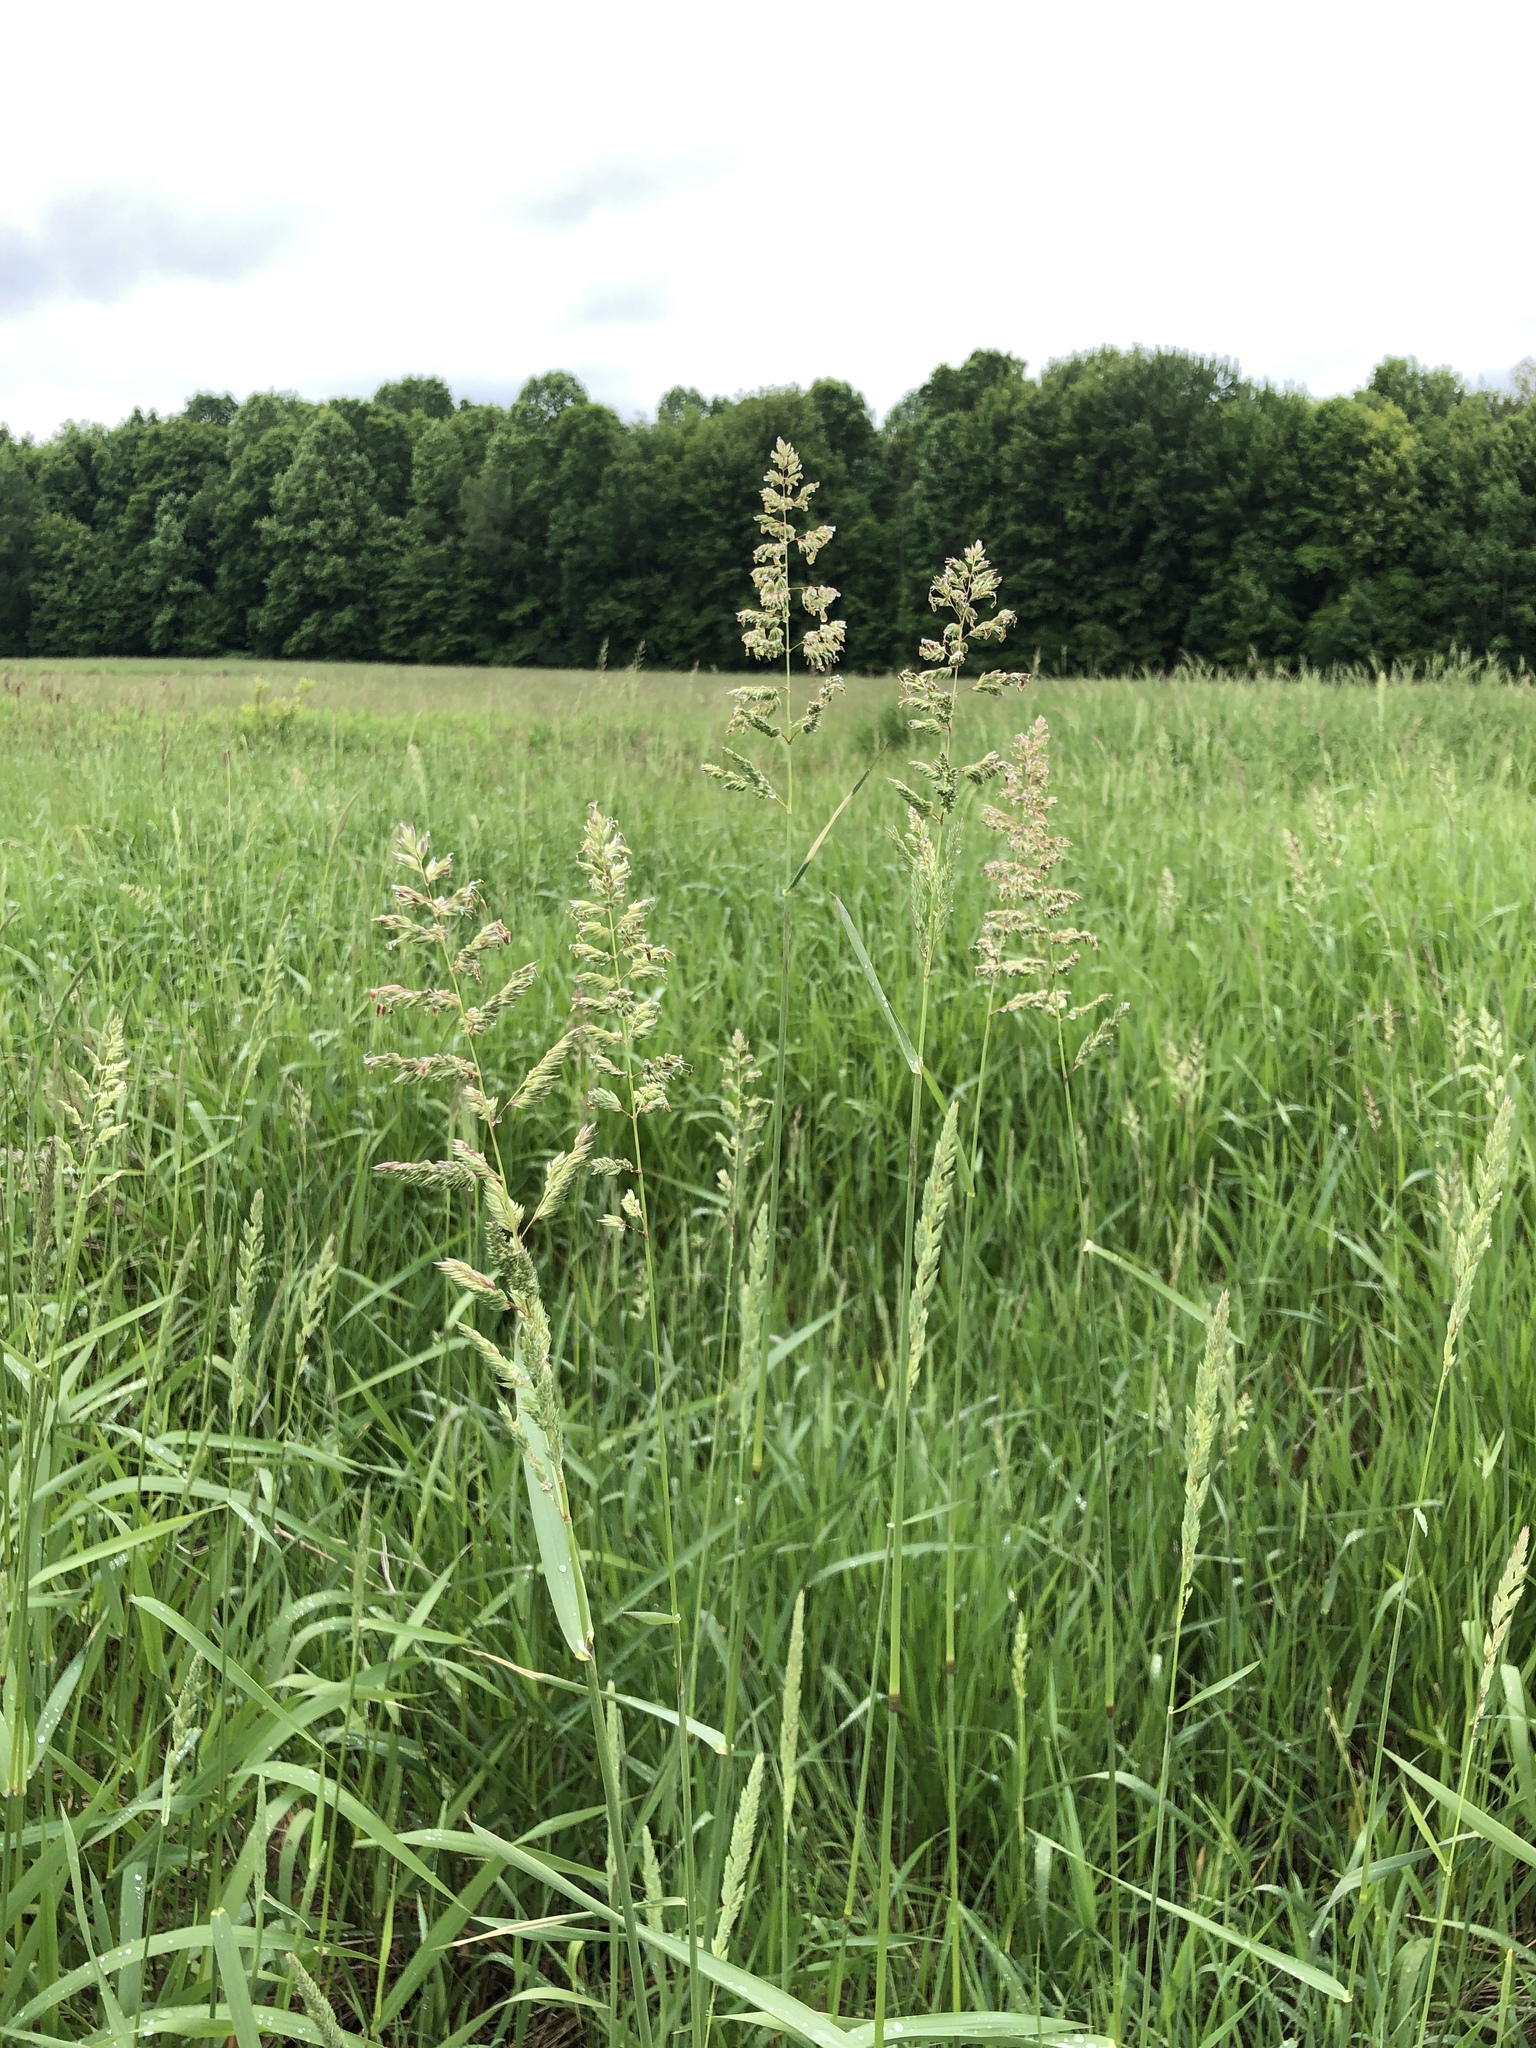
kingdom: Plantae
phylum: Tracheophyta
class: Liliopsida
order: Poales
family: Poaceae
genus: Phalaris
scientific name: Phalaris arundinacea
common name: Reed canary-grass
